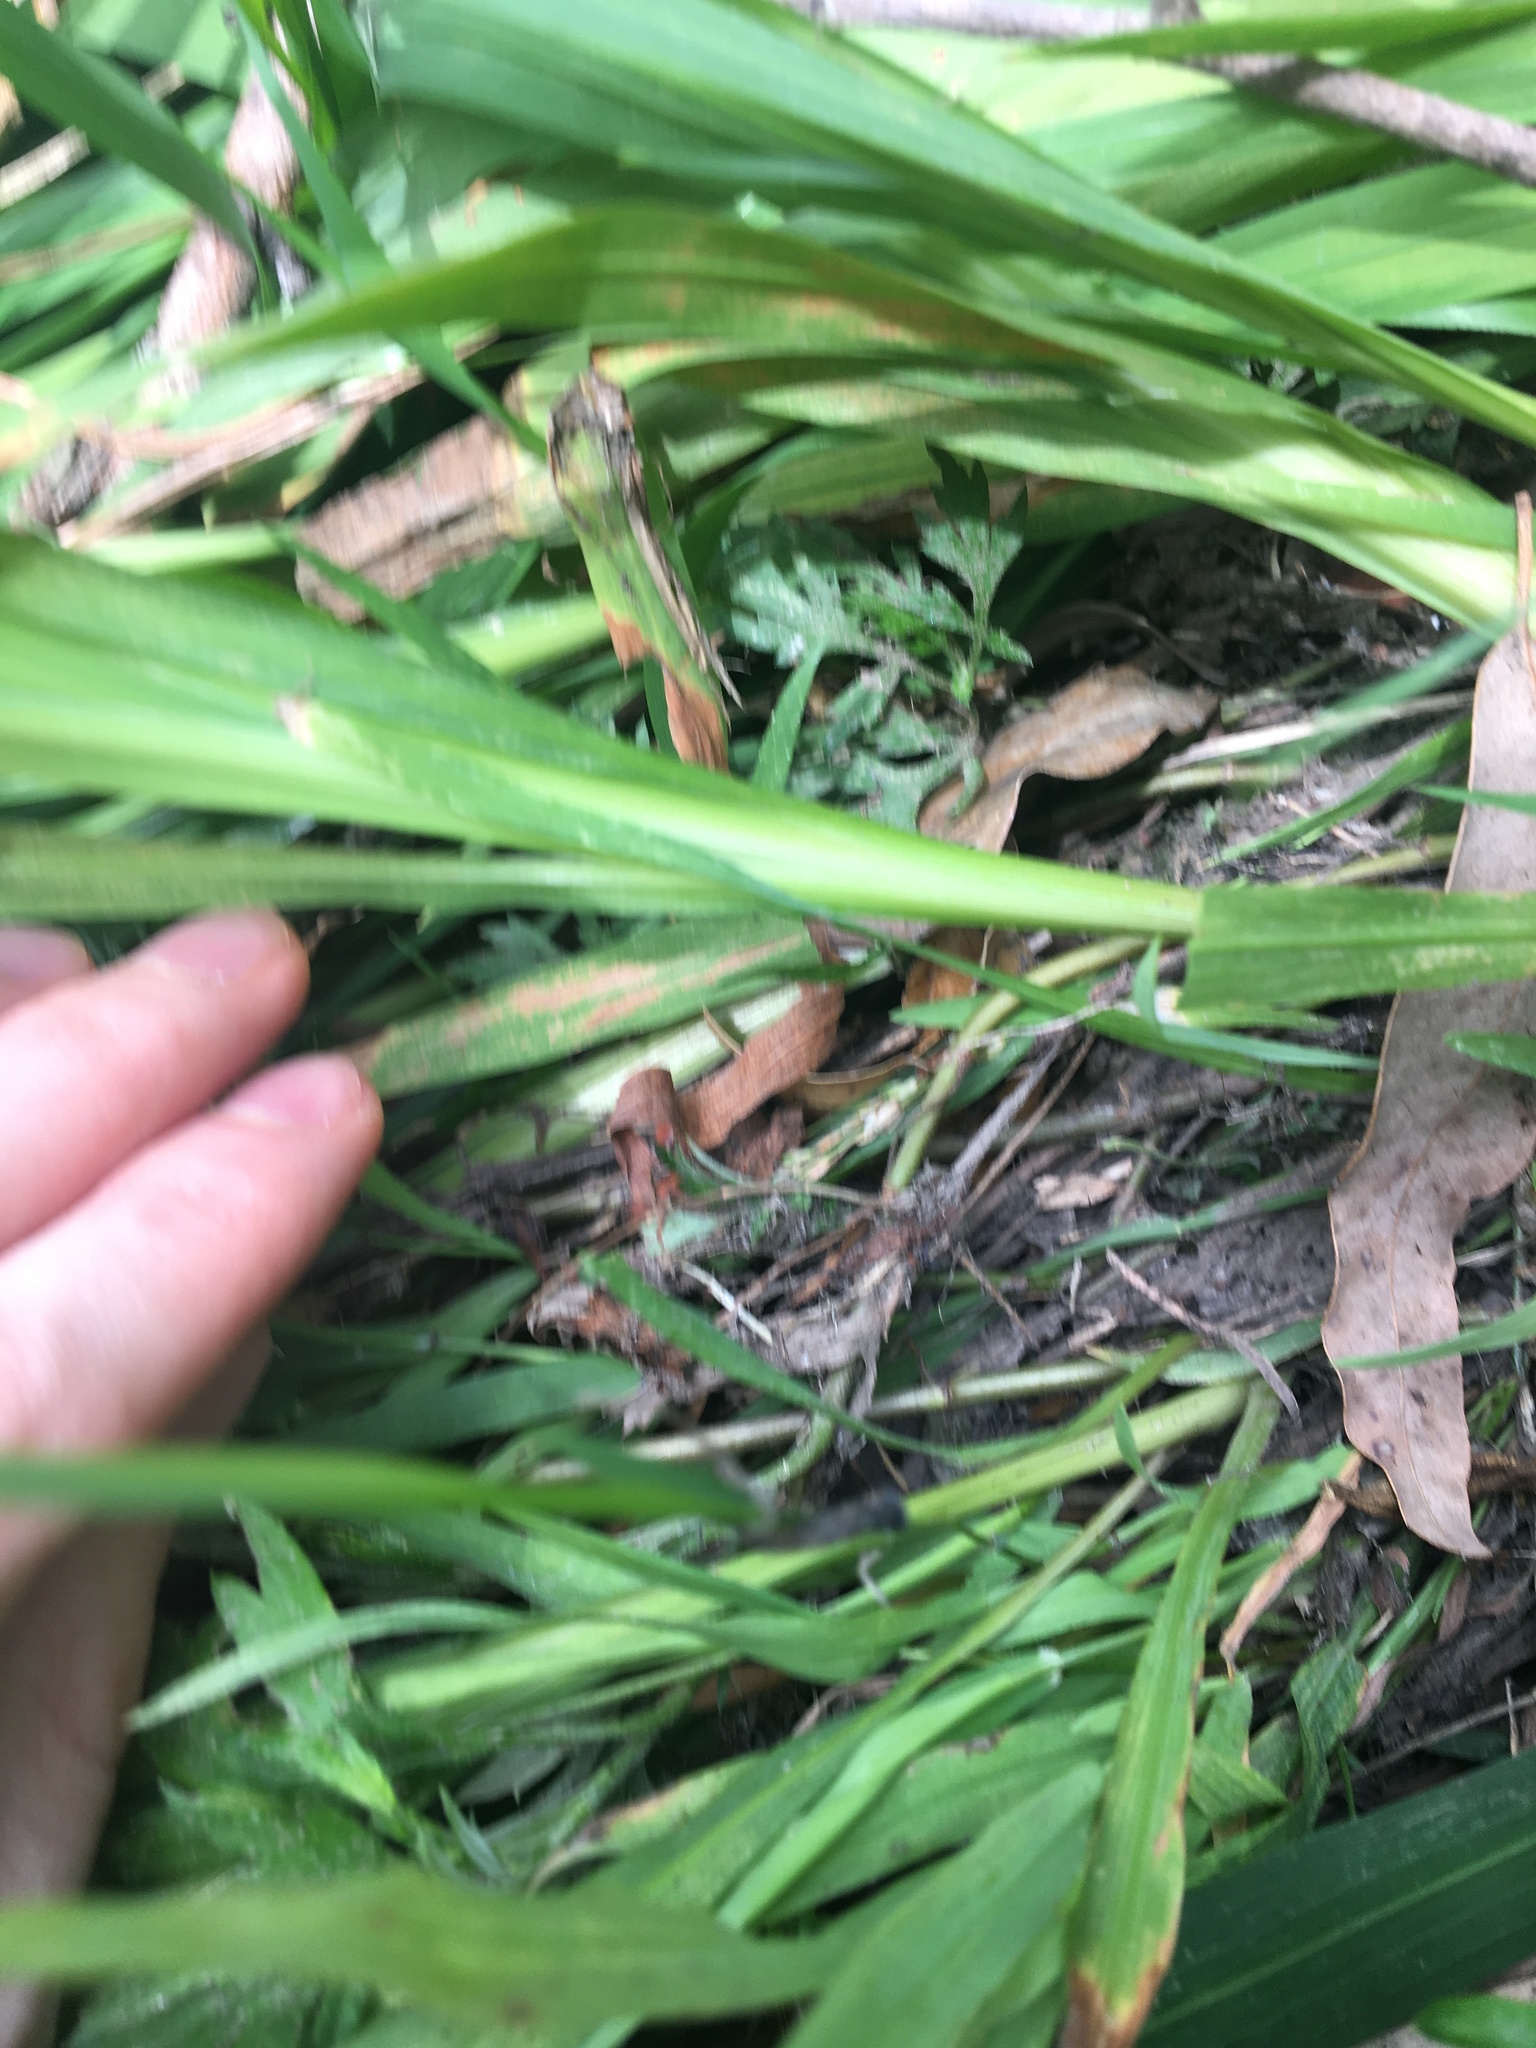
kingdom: Plantae
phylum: Tracheophyta
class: Liliopsida
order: Asparagales
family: Iridaceae
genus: Crocosmia
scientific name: Crocosmia crocosmiiflora
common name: Montbretia
